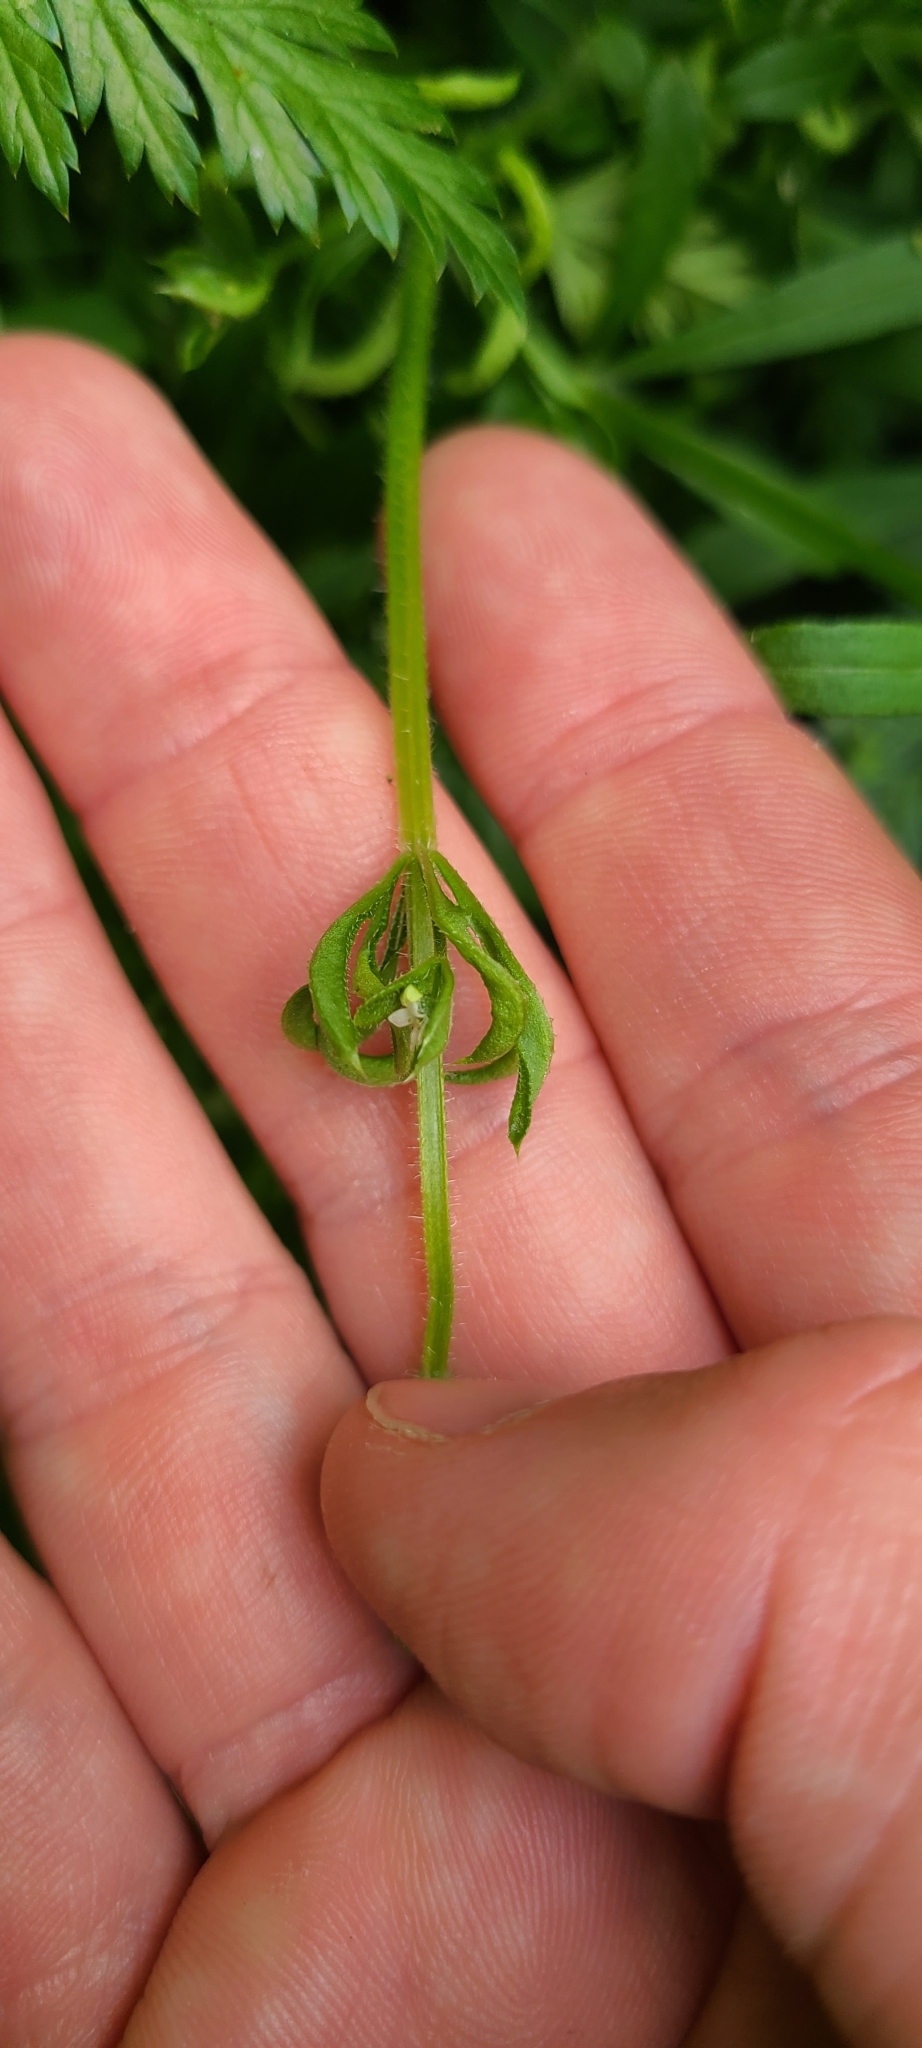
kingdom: Animalia
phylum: Arthropoda
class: Arachnida
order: Trombidiformes
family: Eriophyidae
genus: Cecidophyes
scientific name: Cecidophyes rouhollahi
